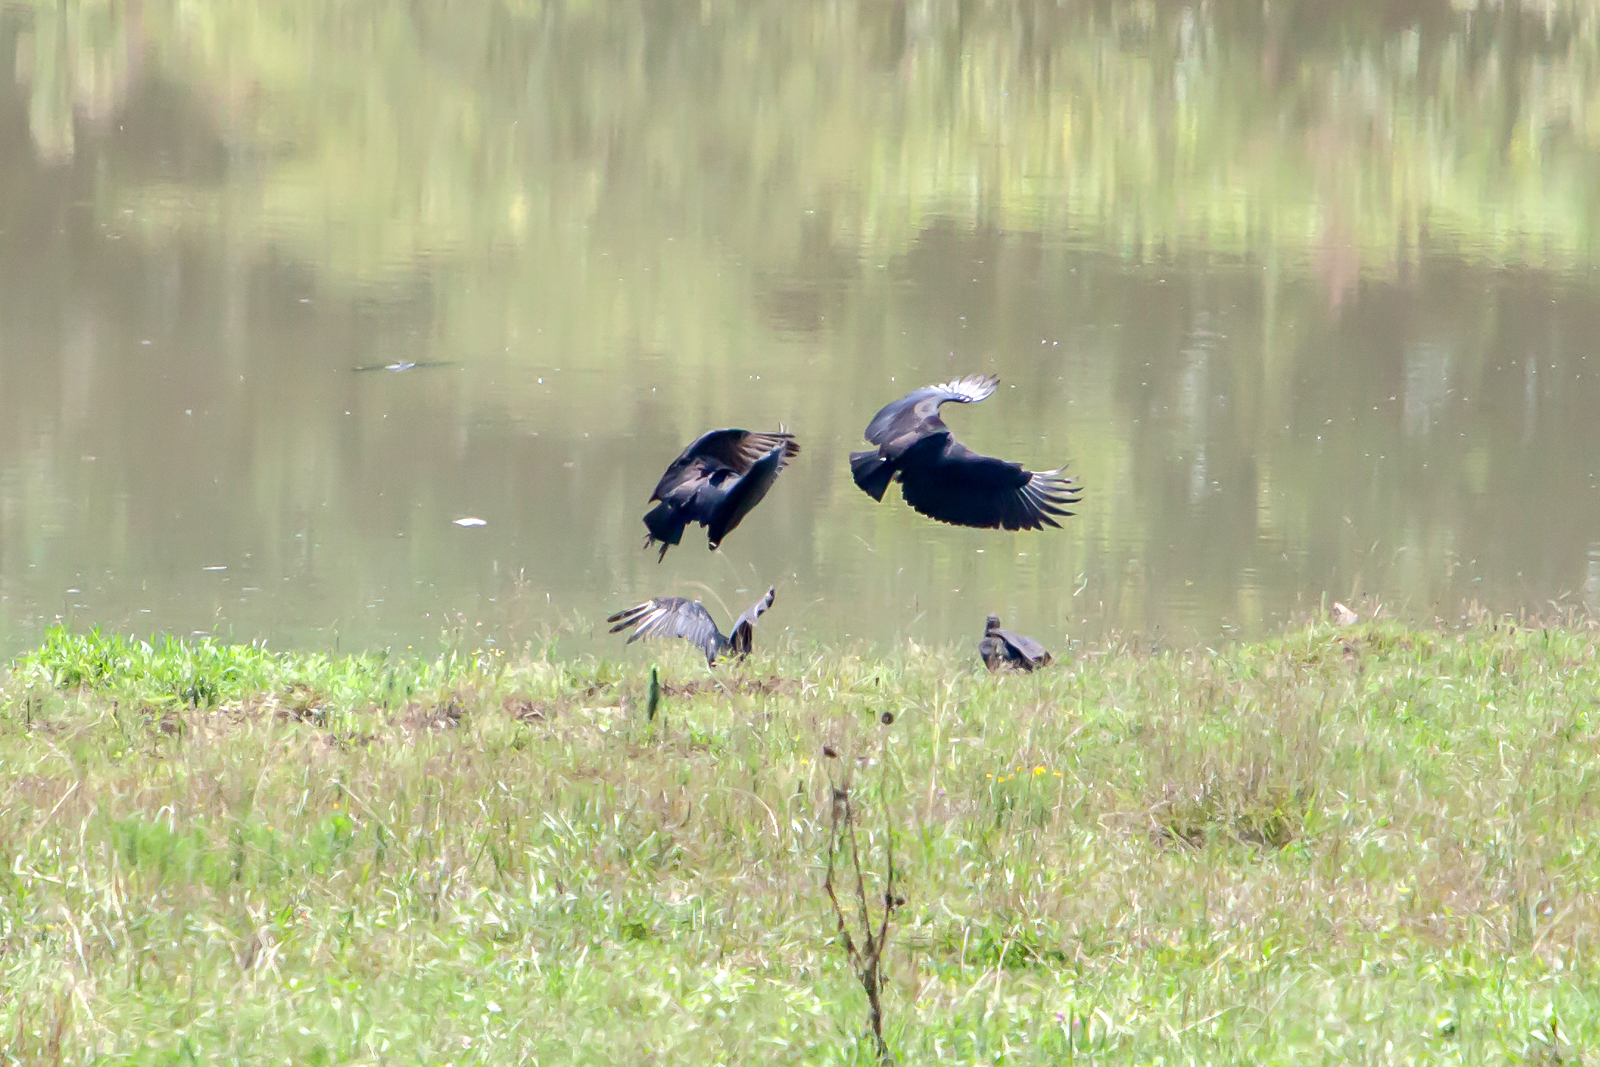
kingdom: Animalia
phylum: Chordata
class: Aves
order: Accipitriformes
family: Cathartidae
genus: Coragyps
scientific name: Coragyps atratus
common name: Black vulture
